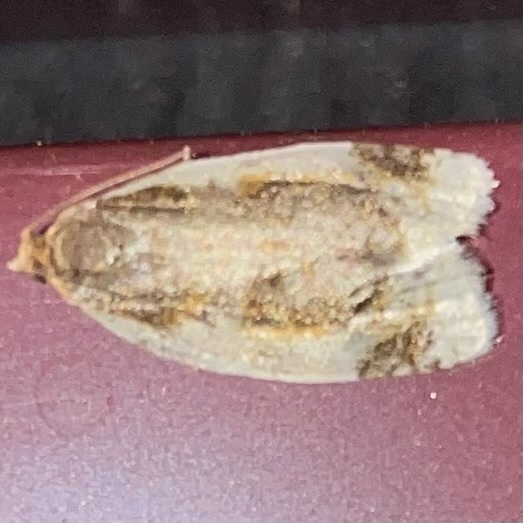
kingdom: Animalia
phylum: Arthropoda
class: Insecta
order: Lepidoptera
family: Tortricidae
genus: Clepsis
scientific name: Clepsis melaleucanus
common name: American apple tortrix
